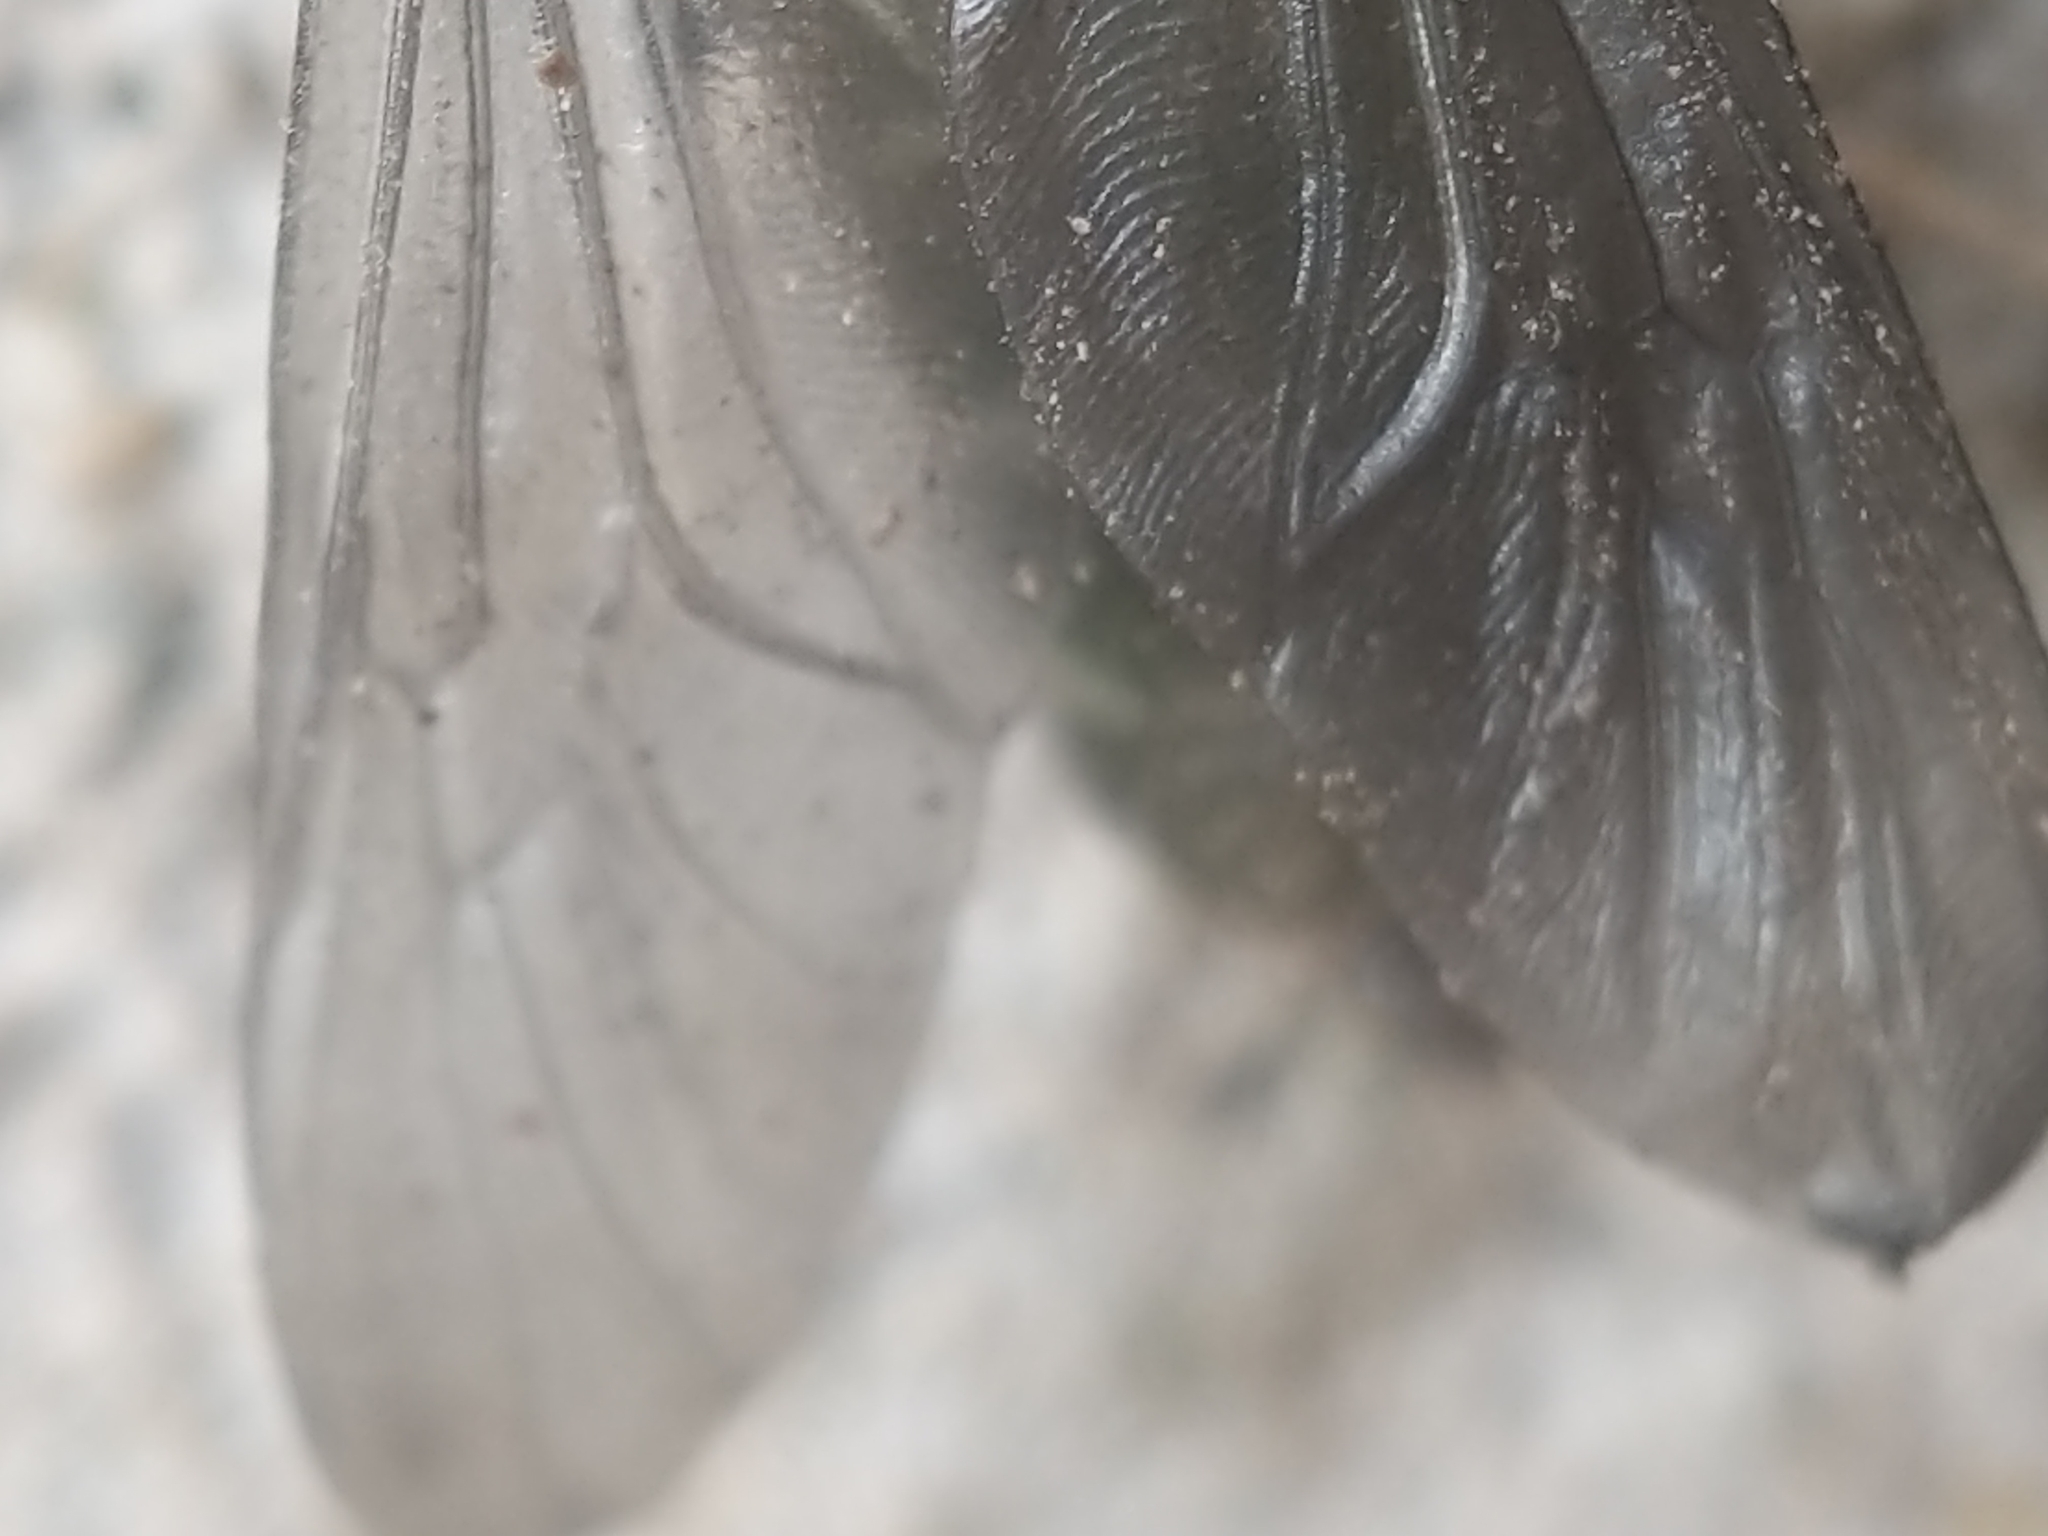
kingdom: Animalia
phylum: Arthropoda
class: Insecta
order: Diptera
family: Stratiomyidae
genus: Hermetia
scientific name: Hermetia illucens
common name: Black soldier fly
